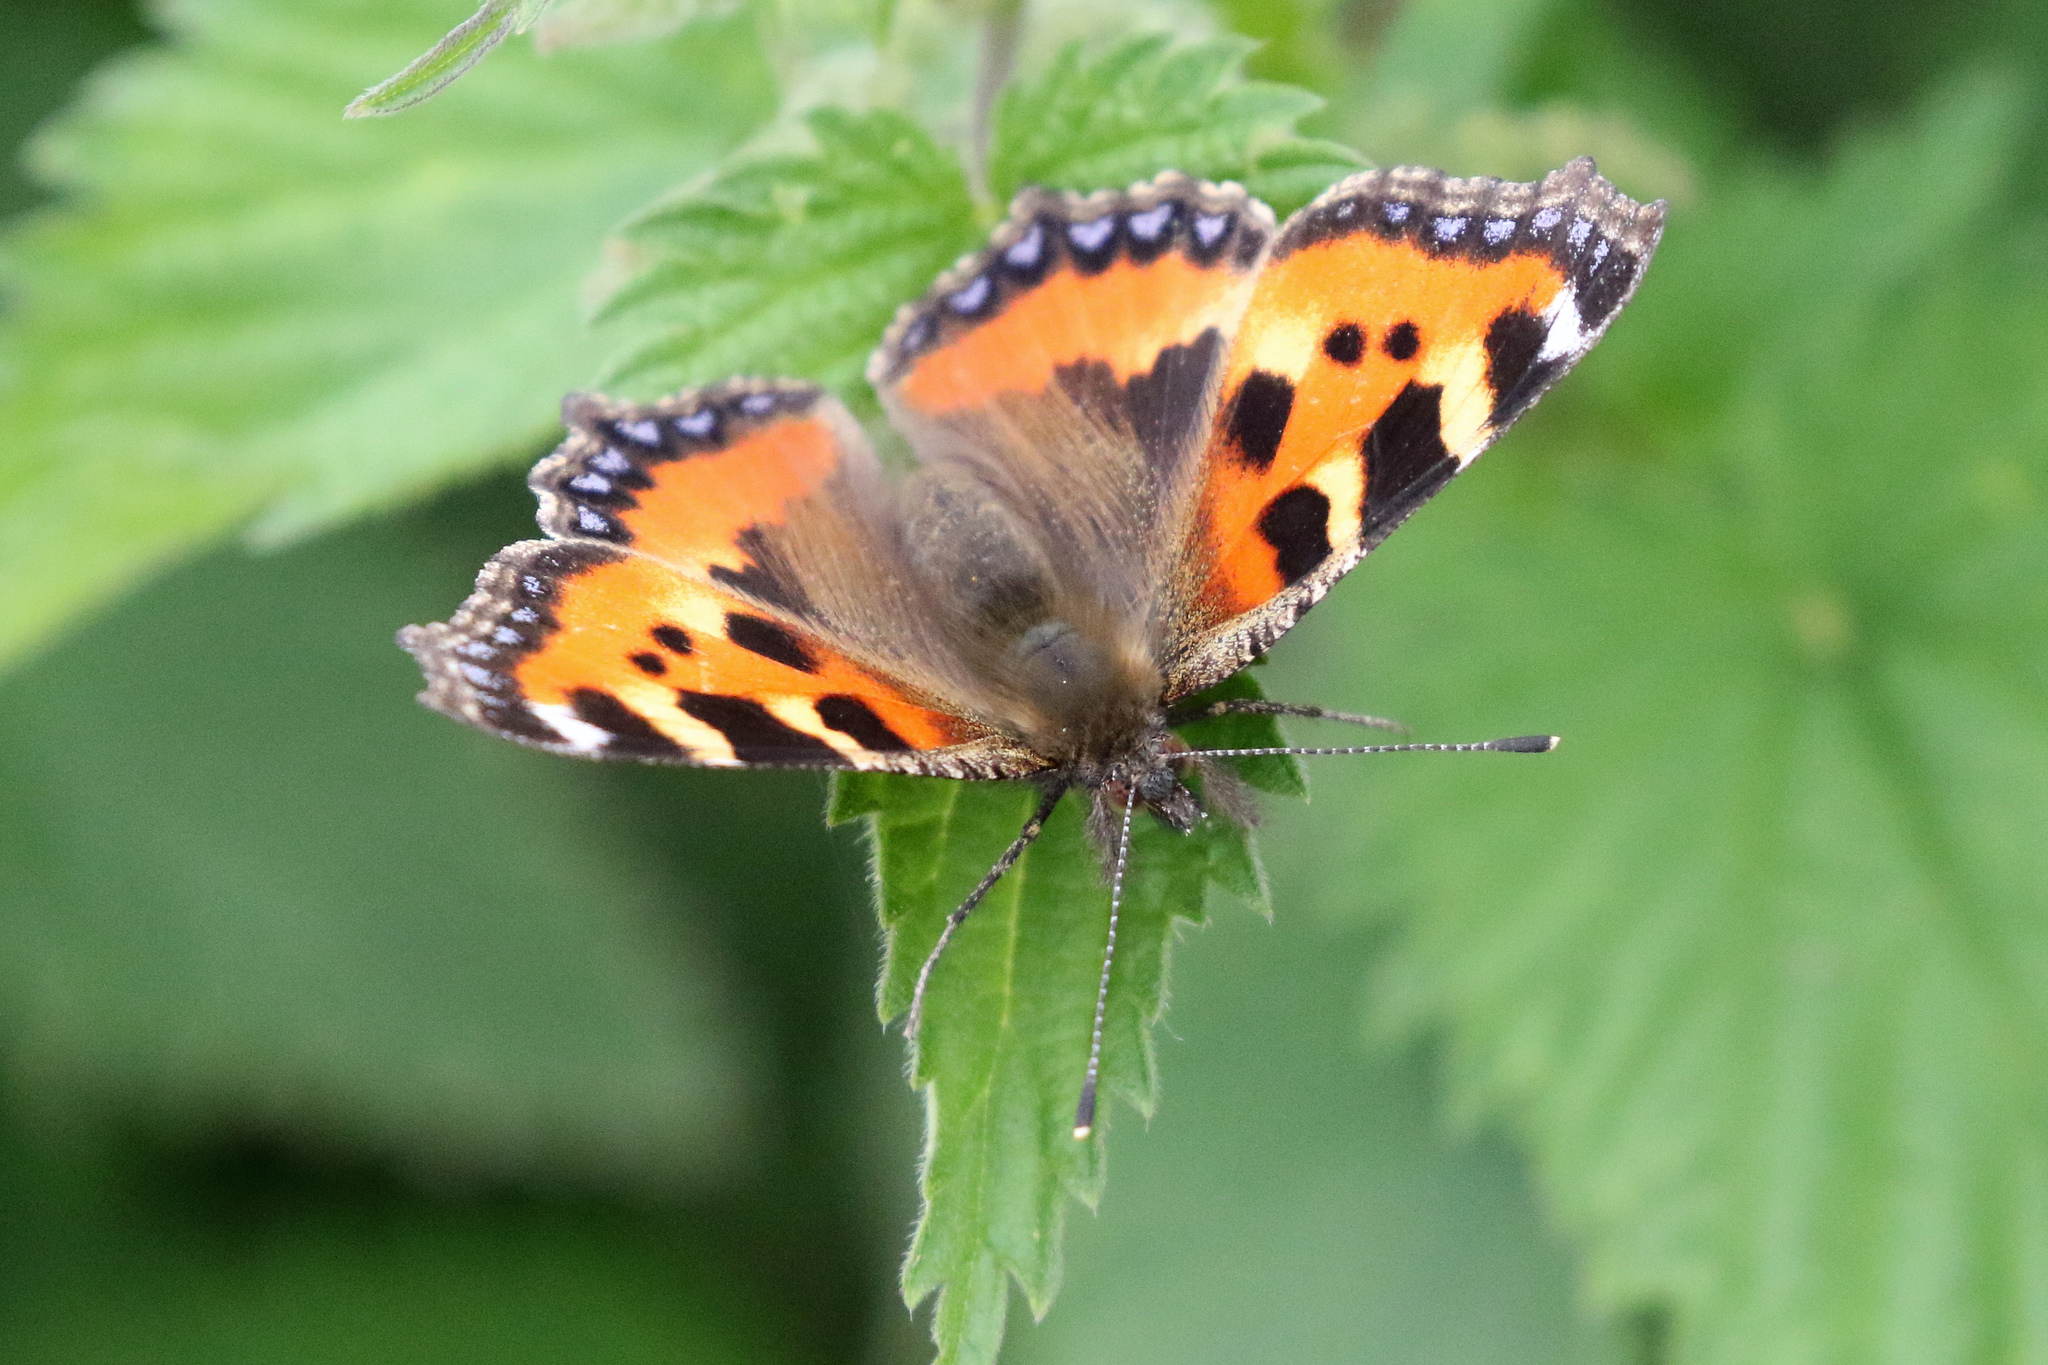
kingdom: Animalia
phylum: Arthropoda
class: Insecta
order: Lepidoptera
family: Nymphalidae
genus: Aglais
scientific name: Aglais urticae
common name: Small tortoiseshell
